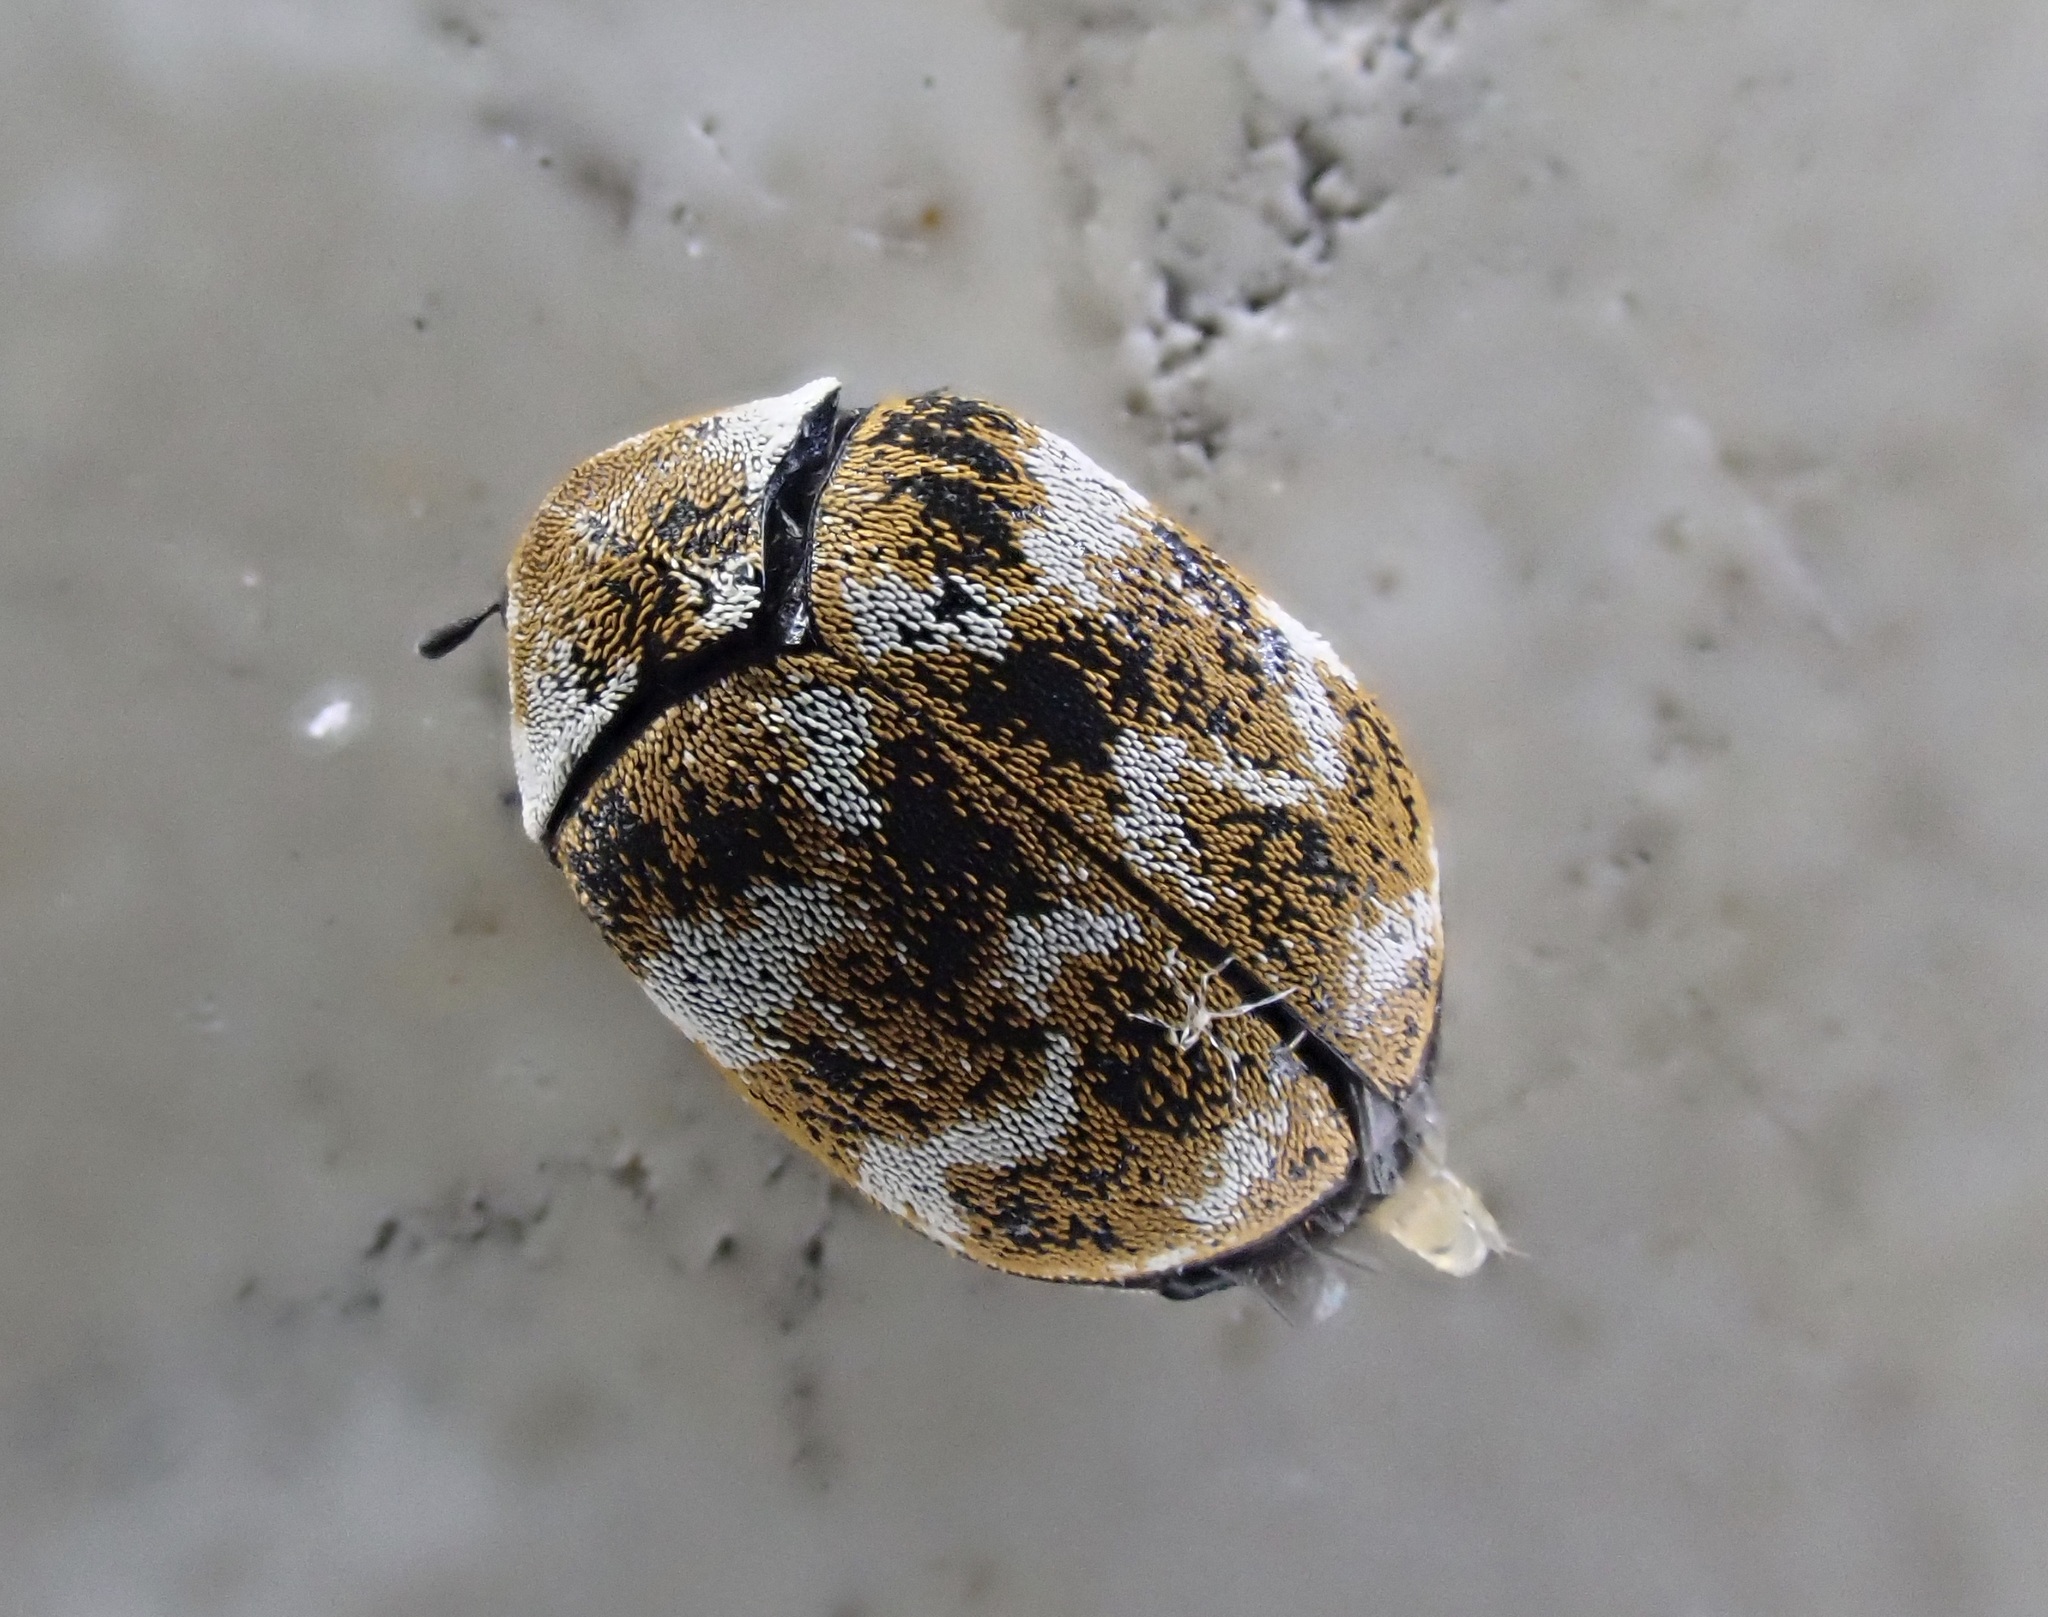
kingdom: Animalia
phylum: Arthropoda
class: Insecta
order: Coleoptera
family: Dermestidae
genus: Anthrenus
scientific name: Anthrenus verbasci
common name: Varied carpet beetle
